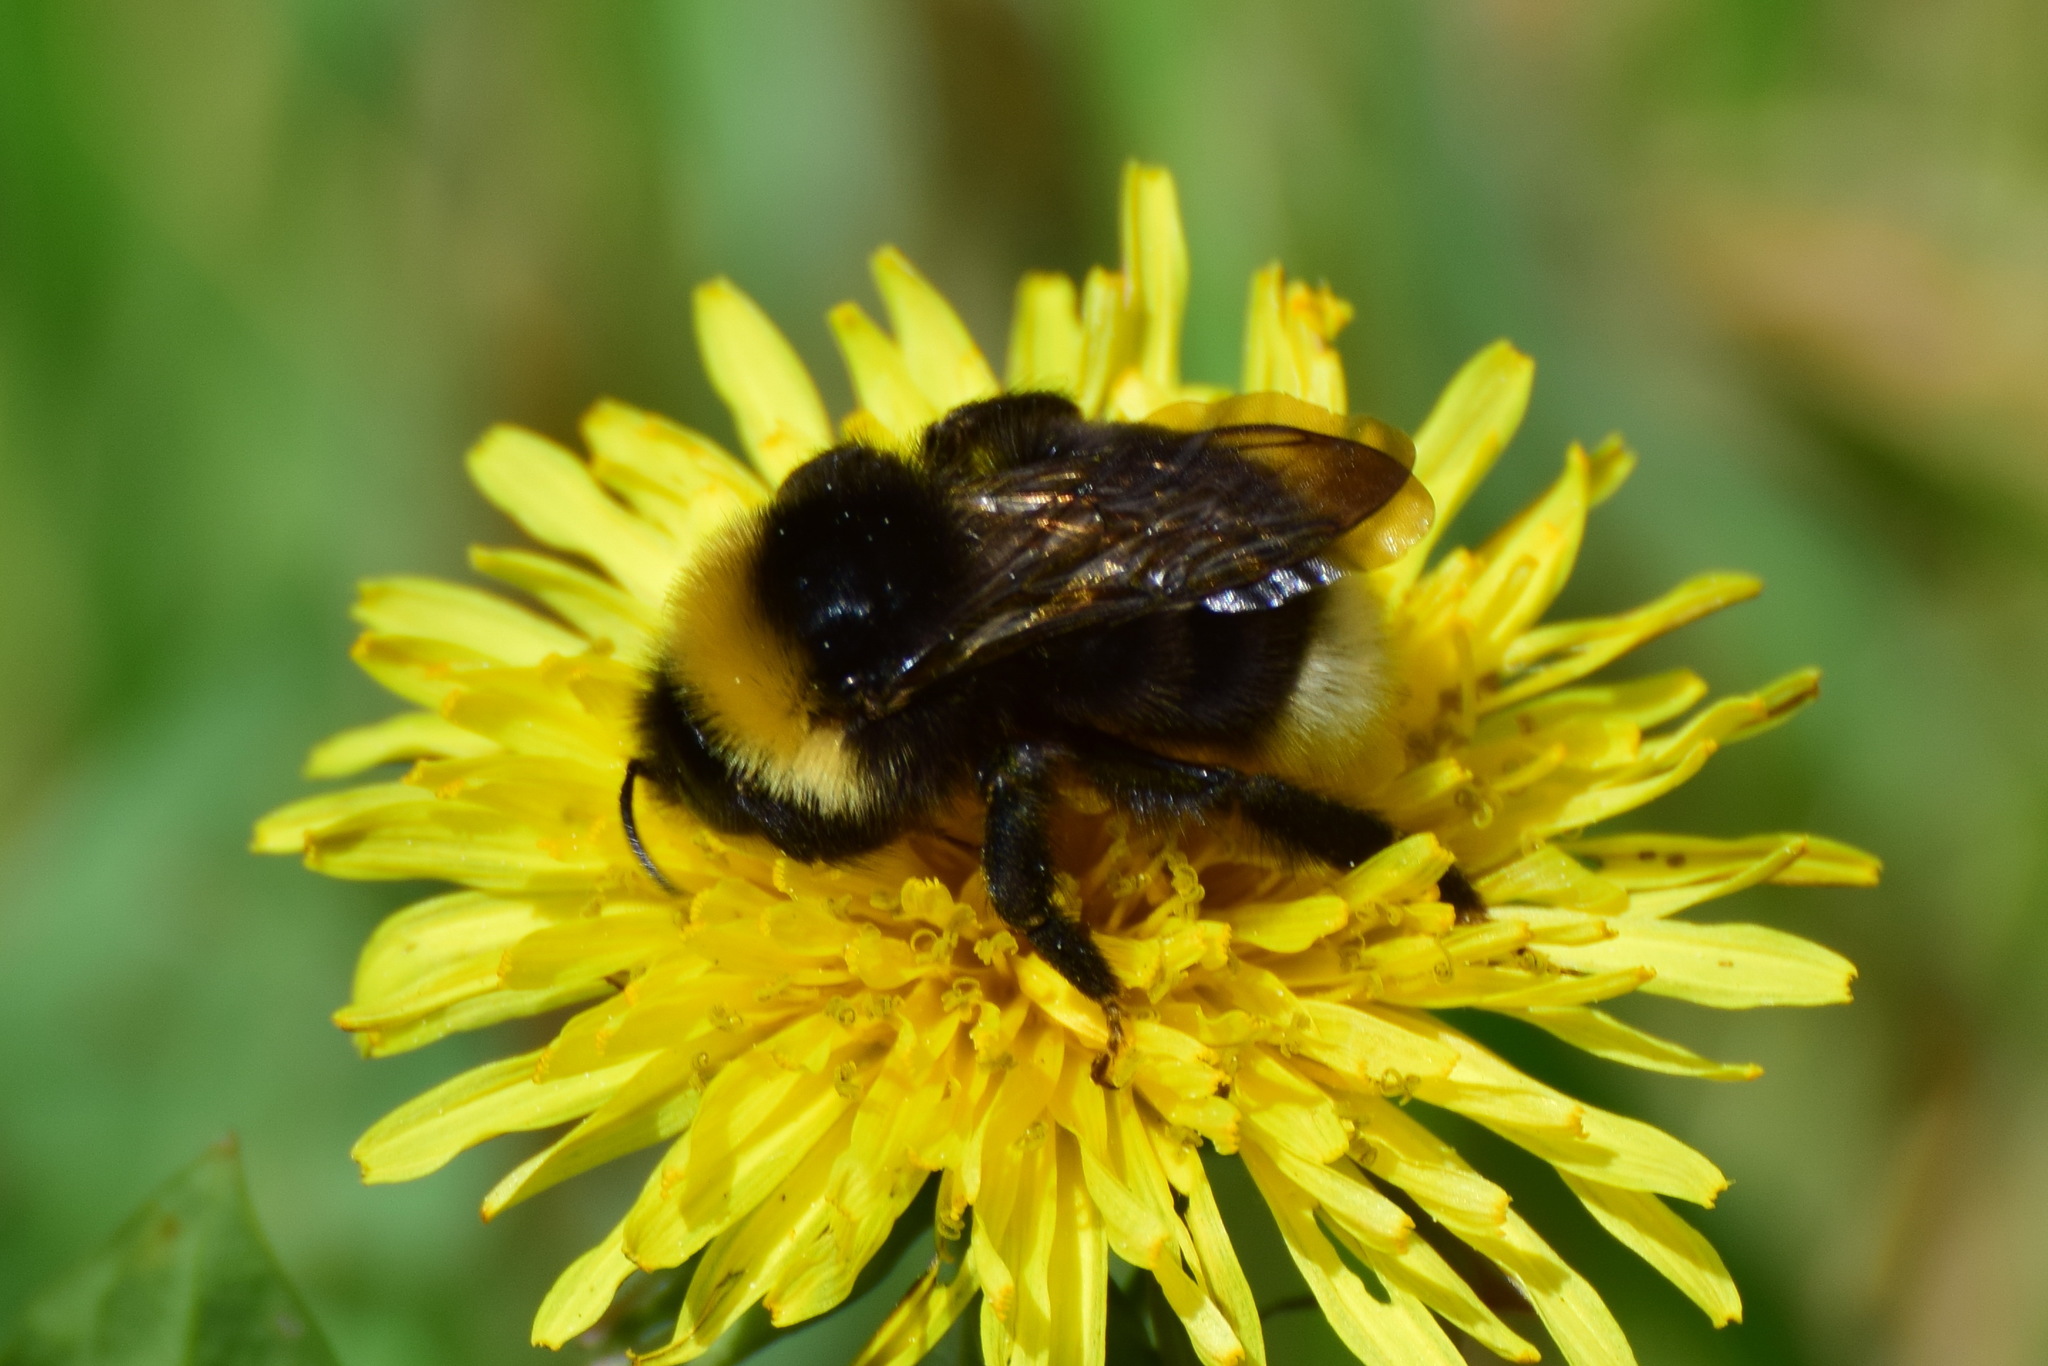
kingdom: Animalia
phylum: Arthropoda
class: Insecta
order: Hymenoptera
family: Apidae
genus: Bombus
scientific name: Bombus bohemicus
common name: Gypsy cuckoo bee
